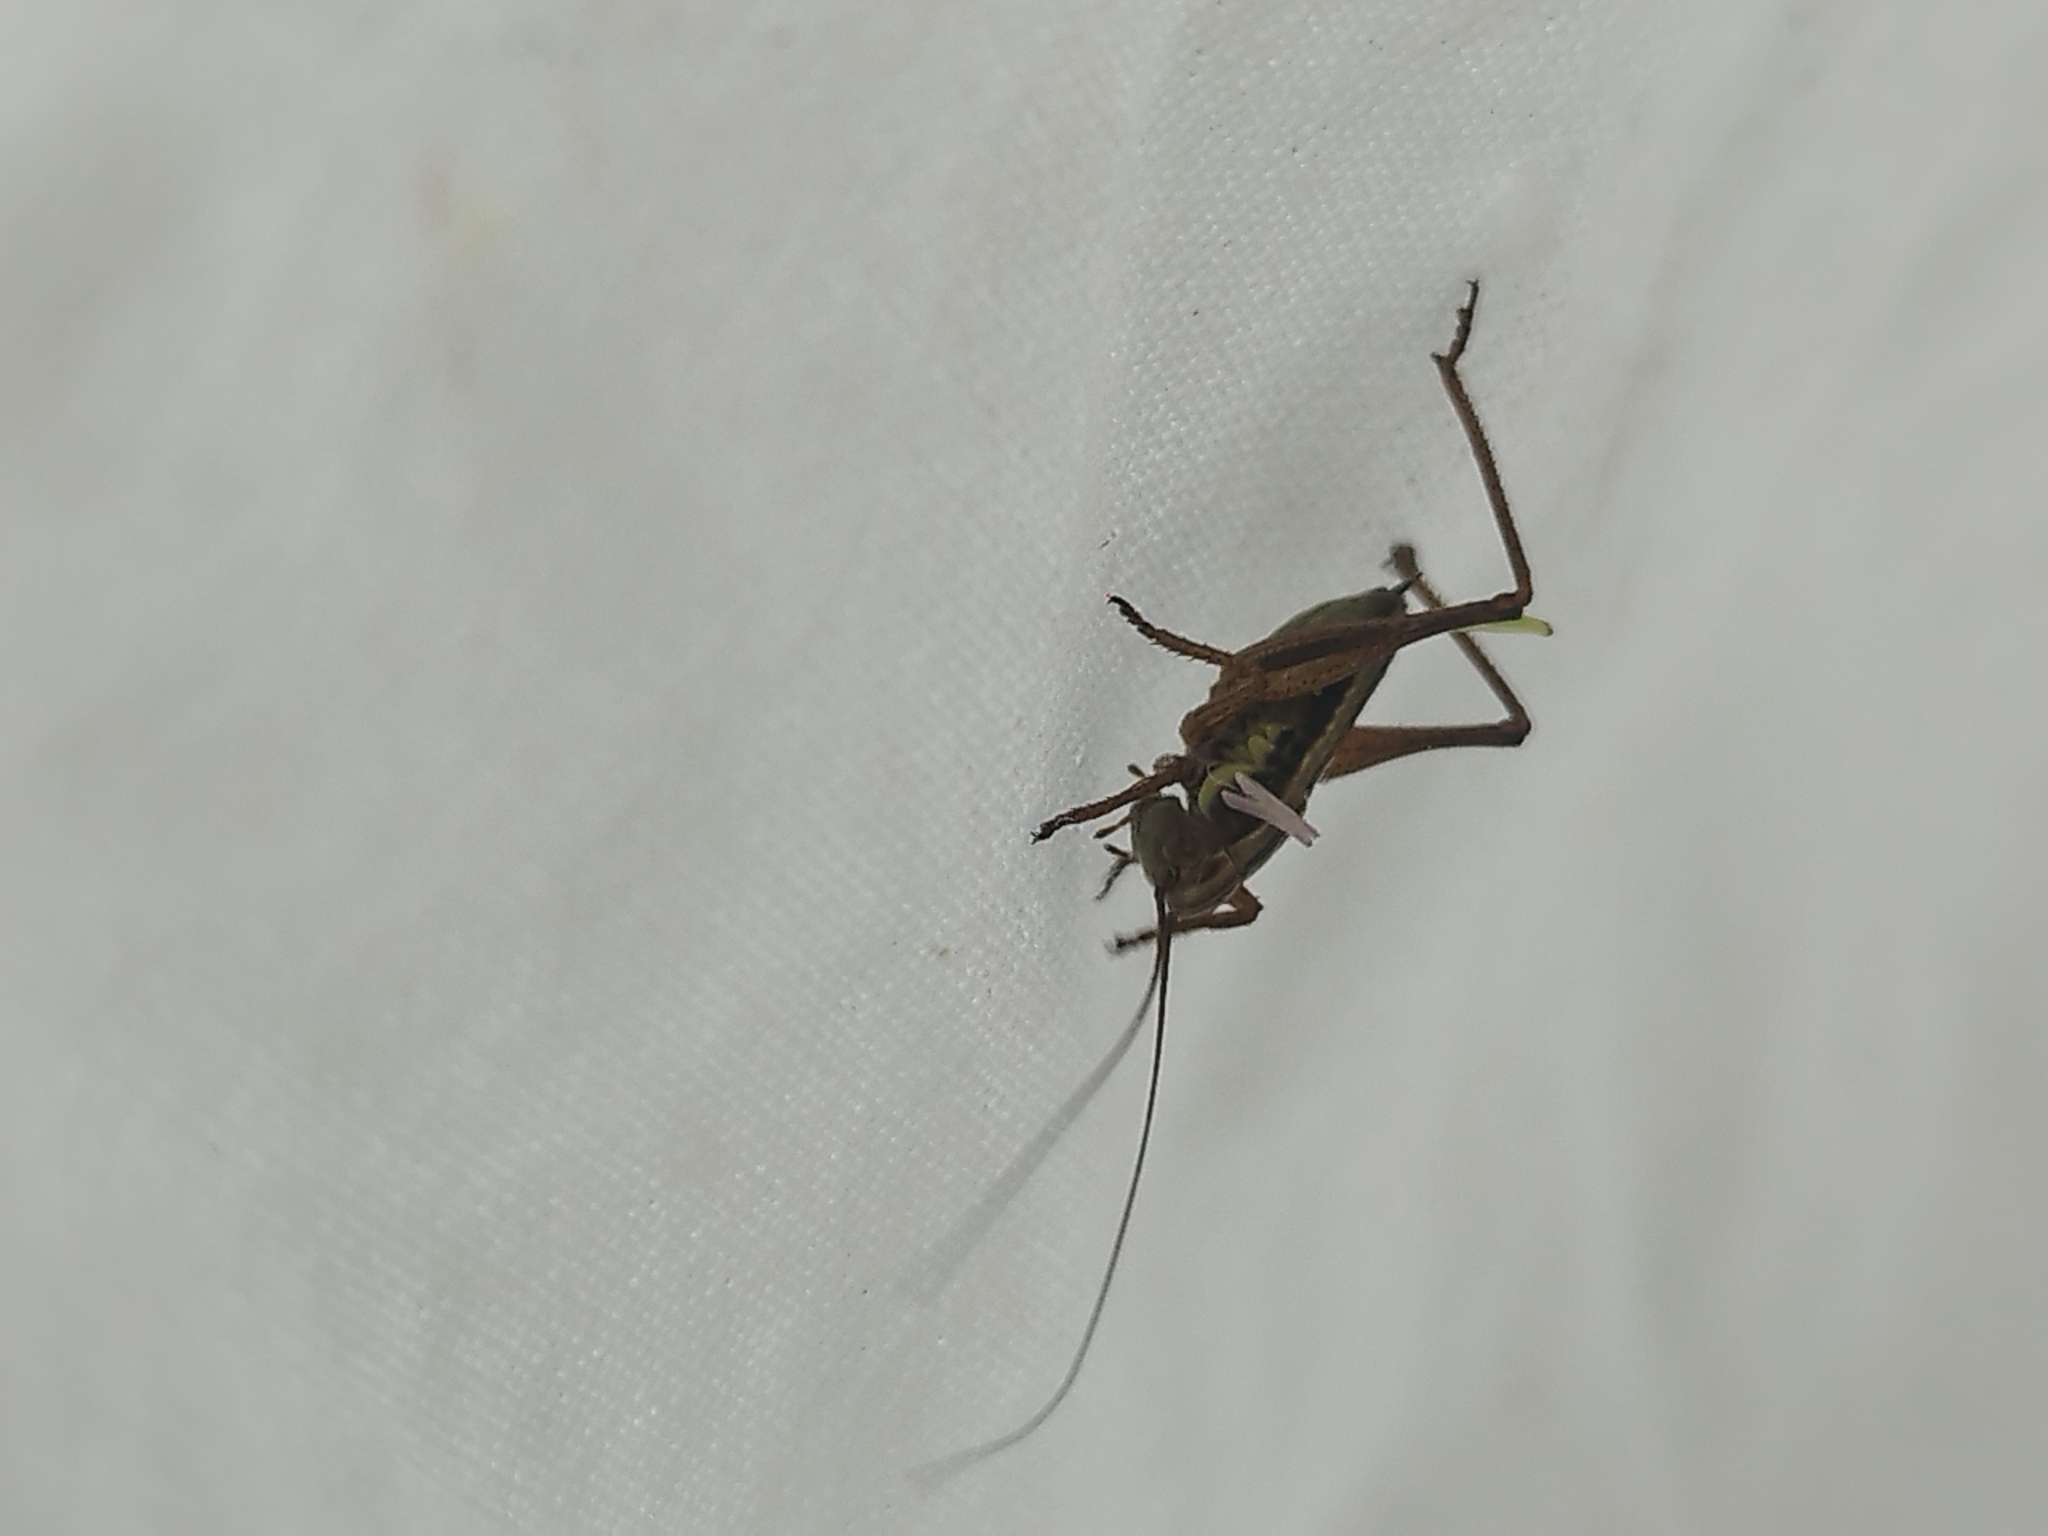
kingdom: Animalia
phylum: Arthropoda
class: Insecta
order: Orthoptera
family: Tettigoniidae
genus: Roeseliana
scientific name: Roeseliana roeselii
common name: Roesel's bush cricket
